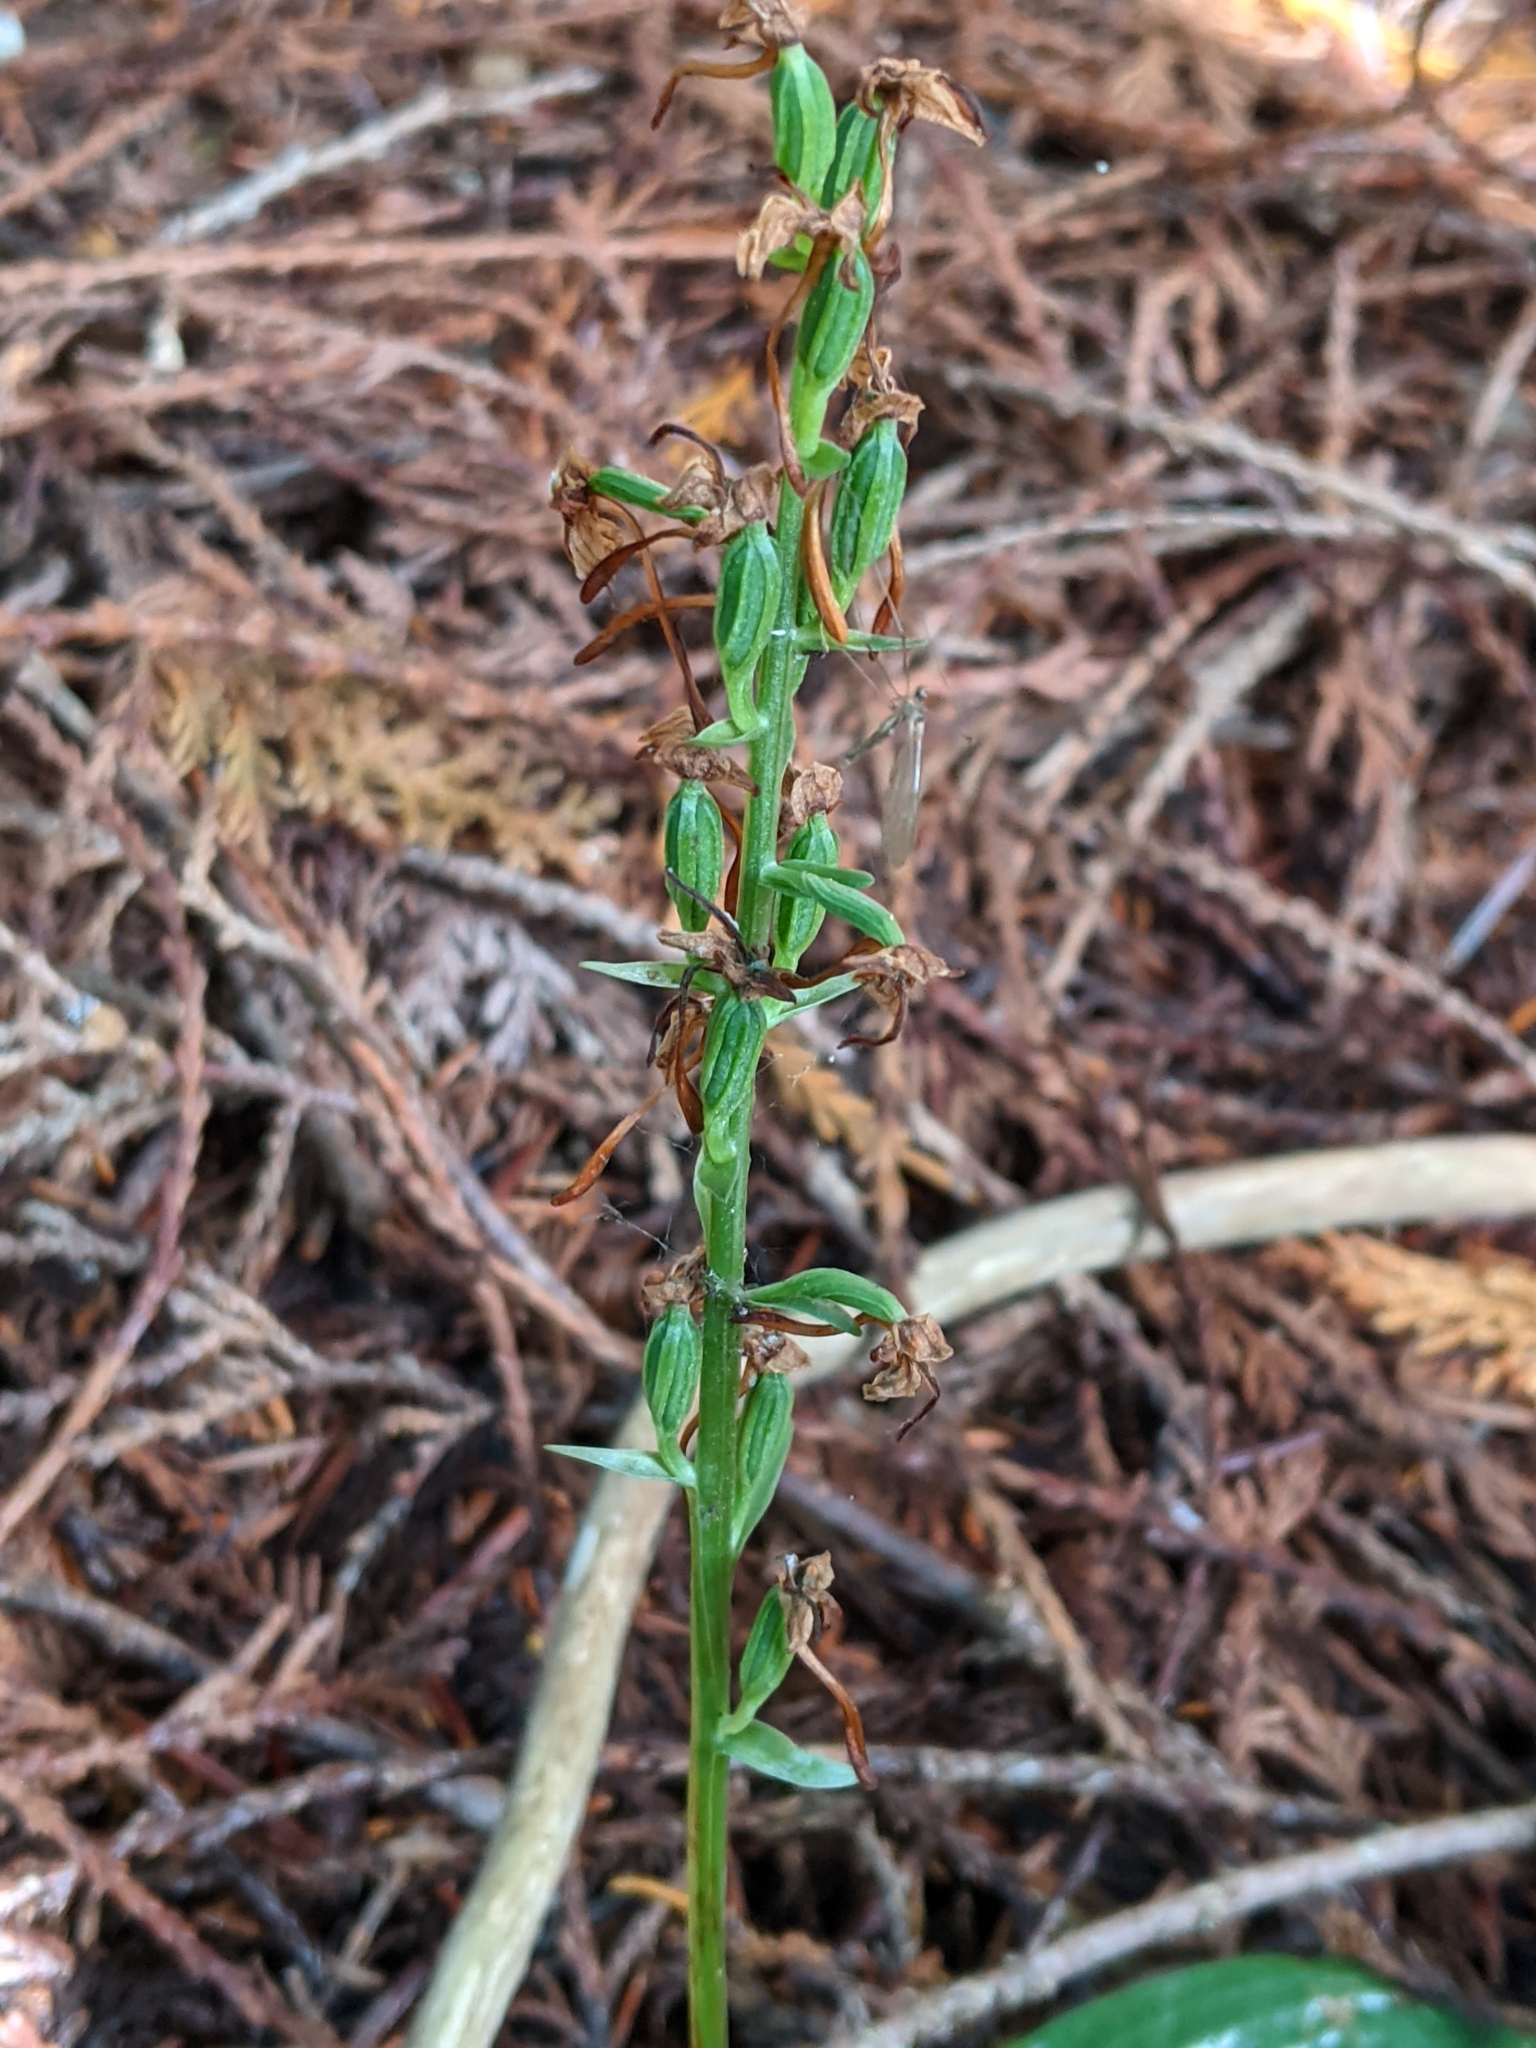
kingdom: Plantae
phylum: Tracheophyta
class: Liliopsida
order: Asparagales
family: Orchidaceae
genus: Platanthera
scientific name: Platanthera orbiculata
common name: Large round-leaved orchid
